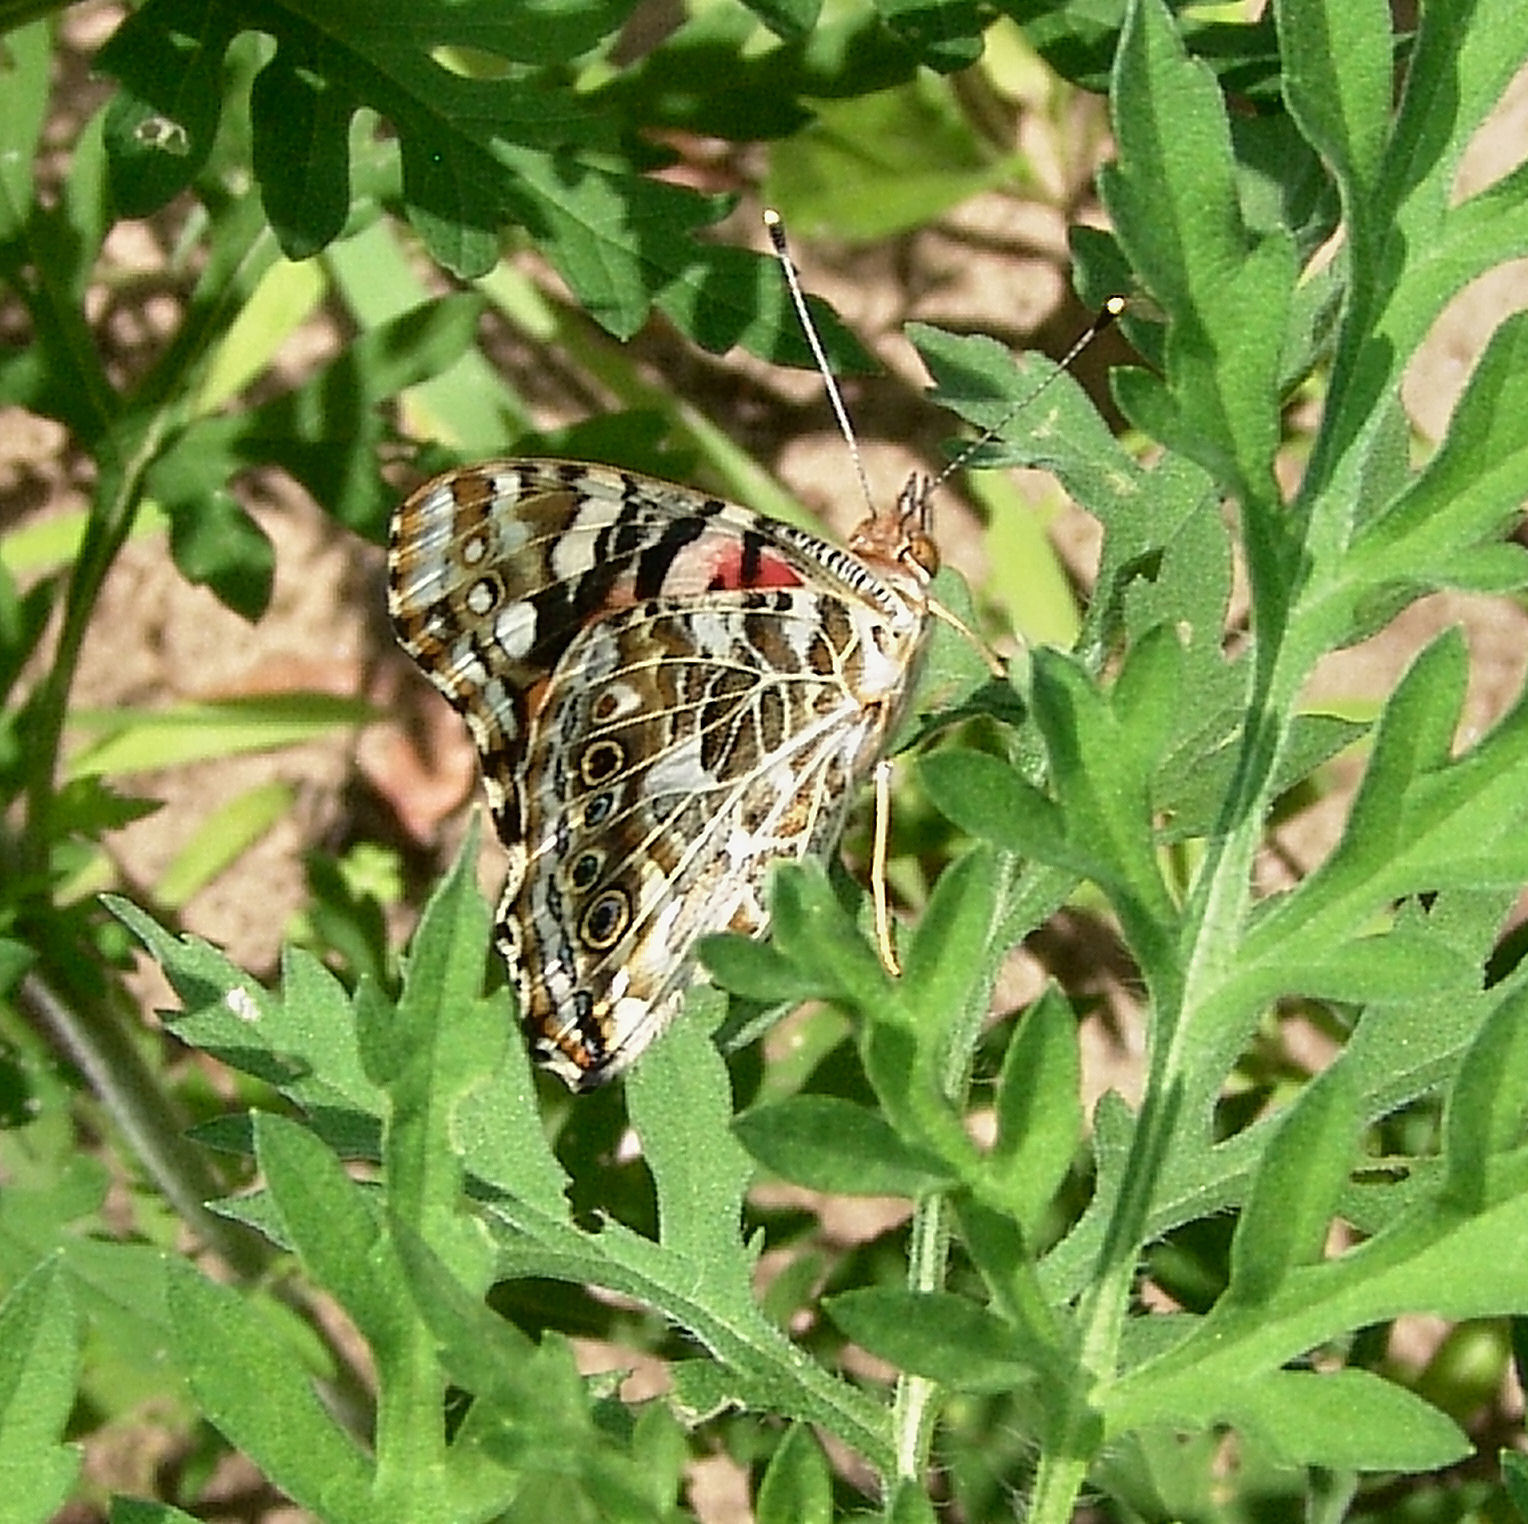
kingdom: Animalia
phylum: Arthropoda
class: Insecta
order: Lepidoptera
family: Nymphalidae
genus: Vanessa
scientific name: Vanessa cardui
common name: Painted lady
